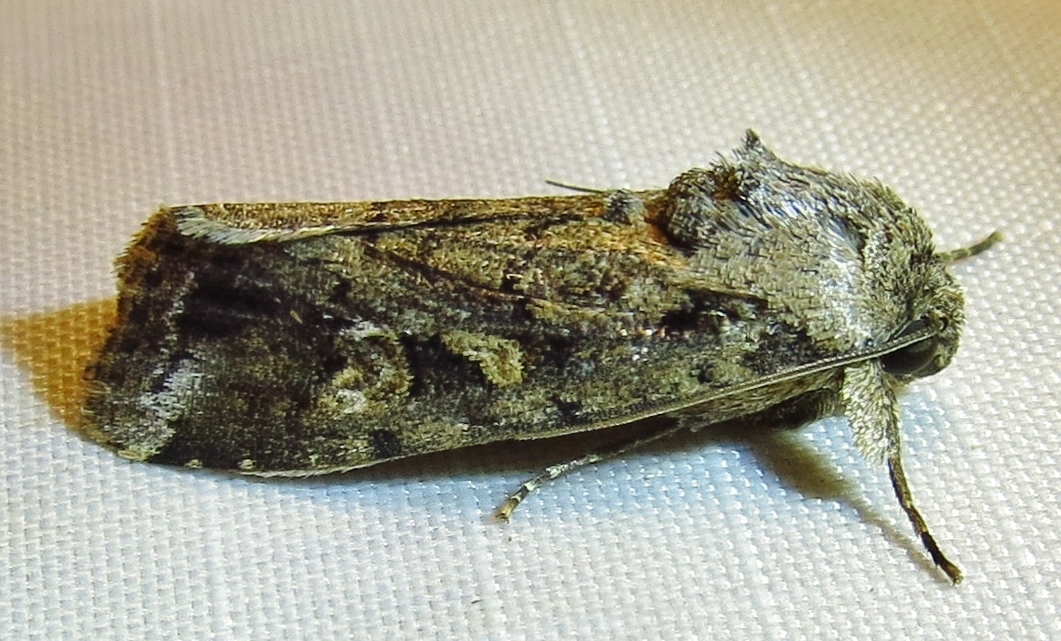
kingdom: Animalia
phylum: Arthropoda
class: Insecta
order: Lepidoptera
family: Noctuidae
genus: Spodoptera
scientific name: Spodoptera frugiperda
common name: Fall armyworm
